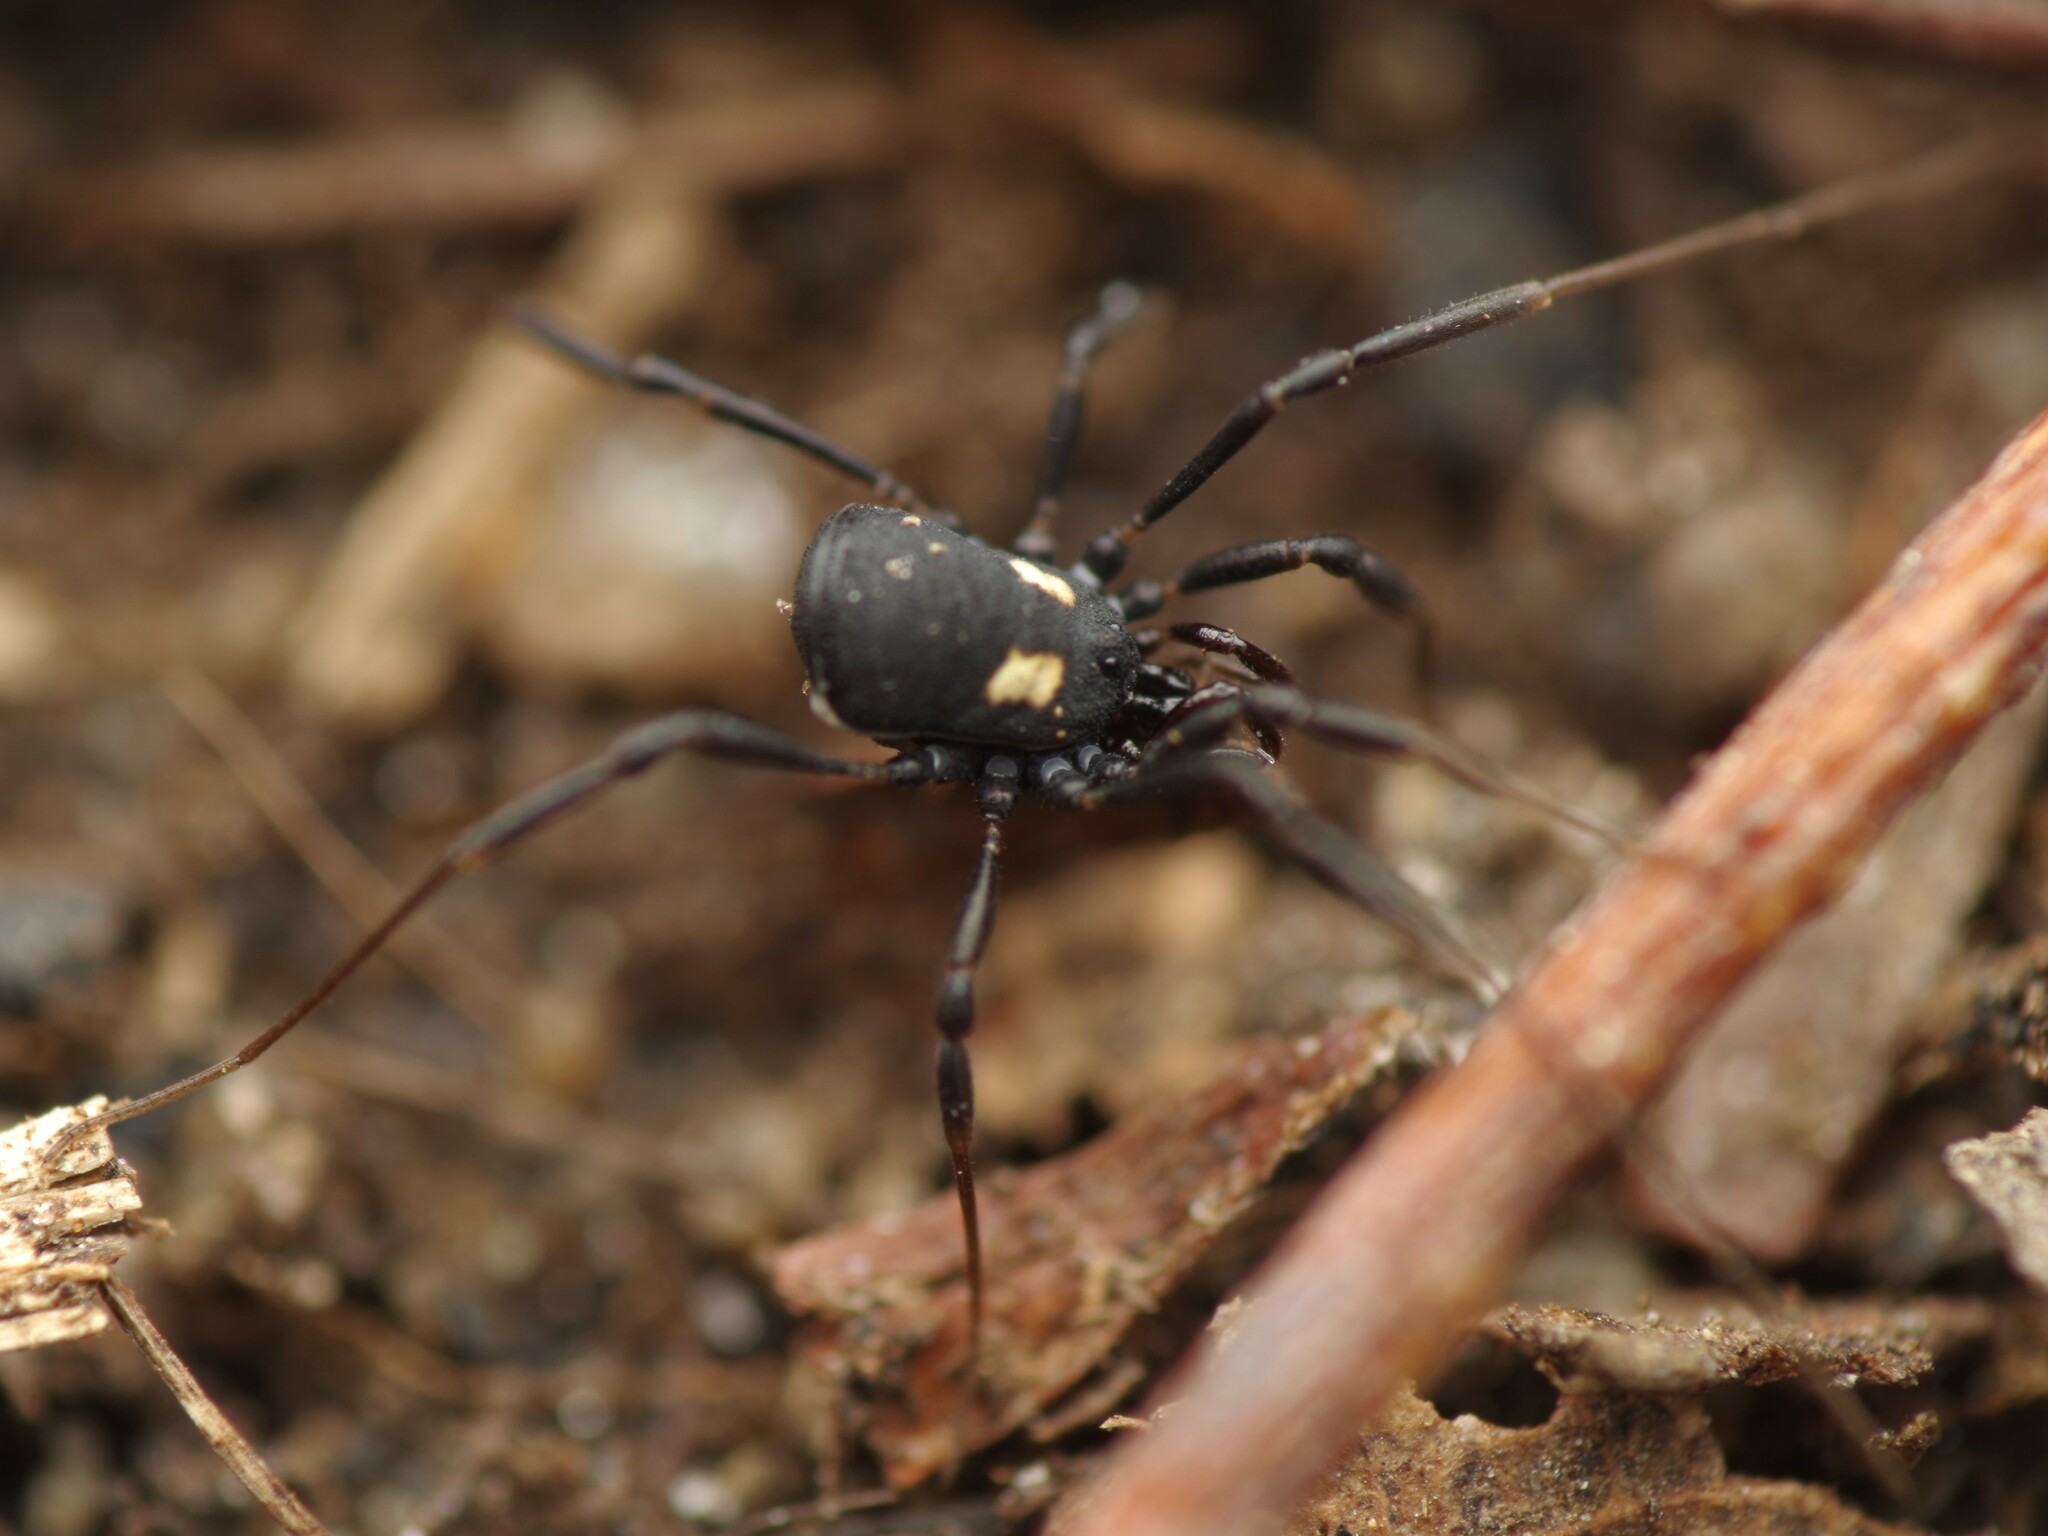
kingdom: Animalia
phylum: Arthropoda
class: Arachnida
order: Opiliones
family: Nemastomatidae
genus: Nemastoma
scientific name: Nemastoma bimaculatum
